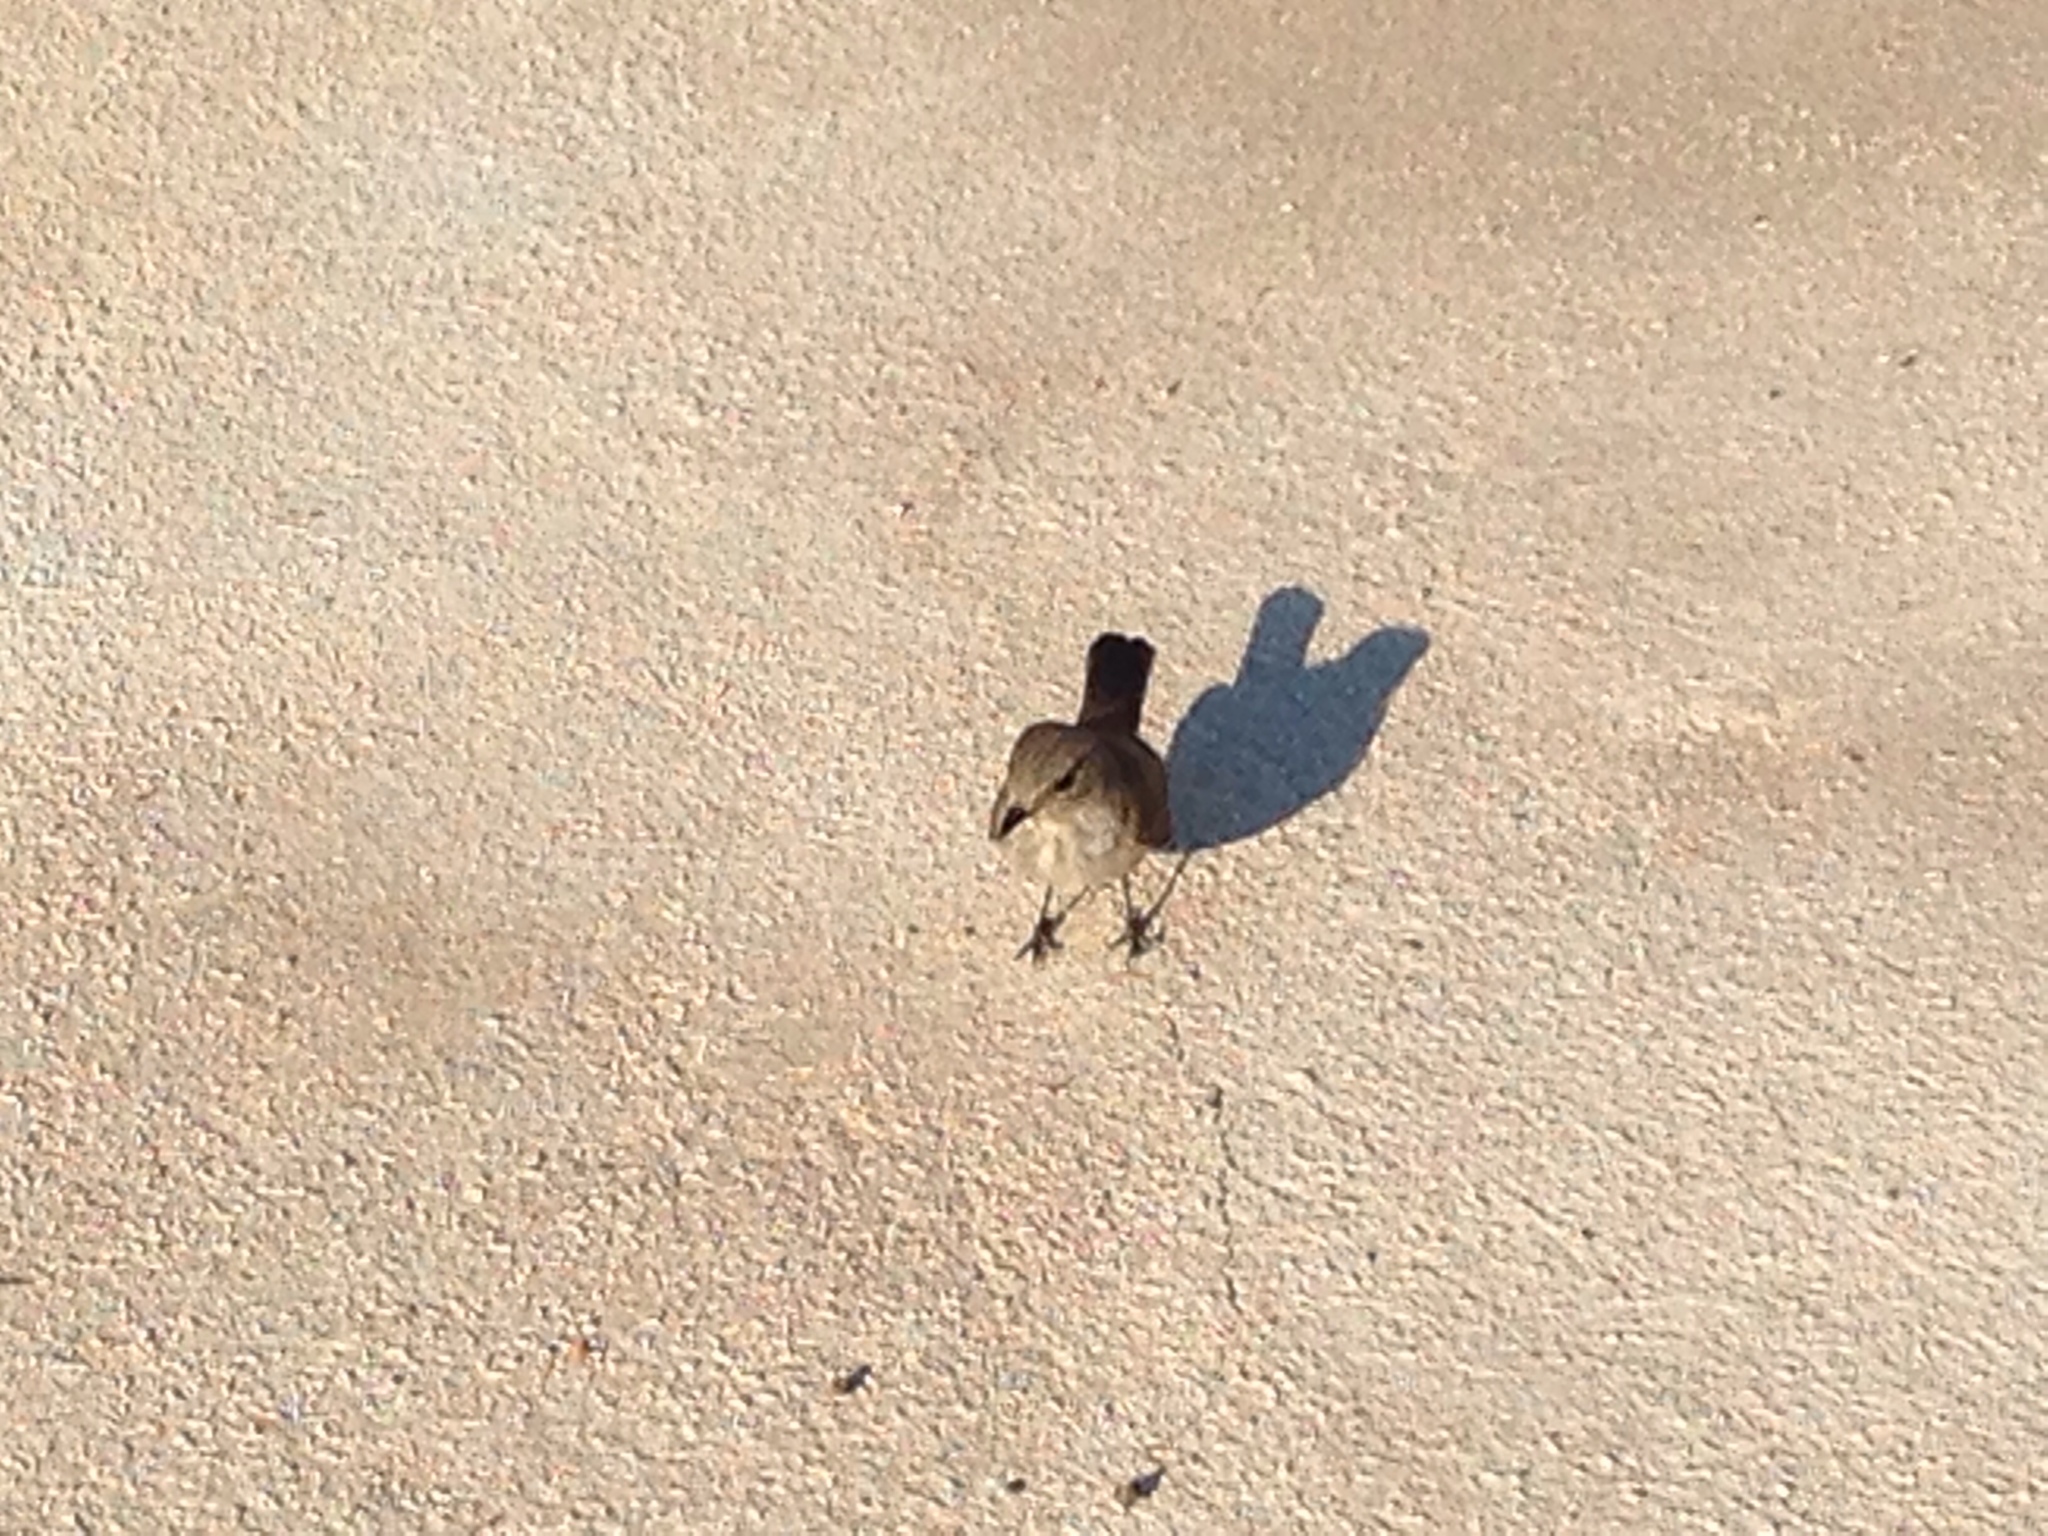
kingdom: Animalia
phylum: Chordata
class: Aves
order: Passeriformes
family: Muscicapidae
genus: Muscicapa
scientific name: Muscicapa striata
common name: Spotted flycatcher
